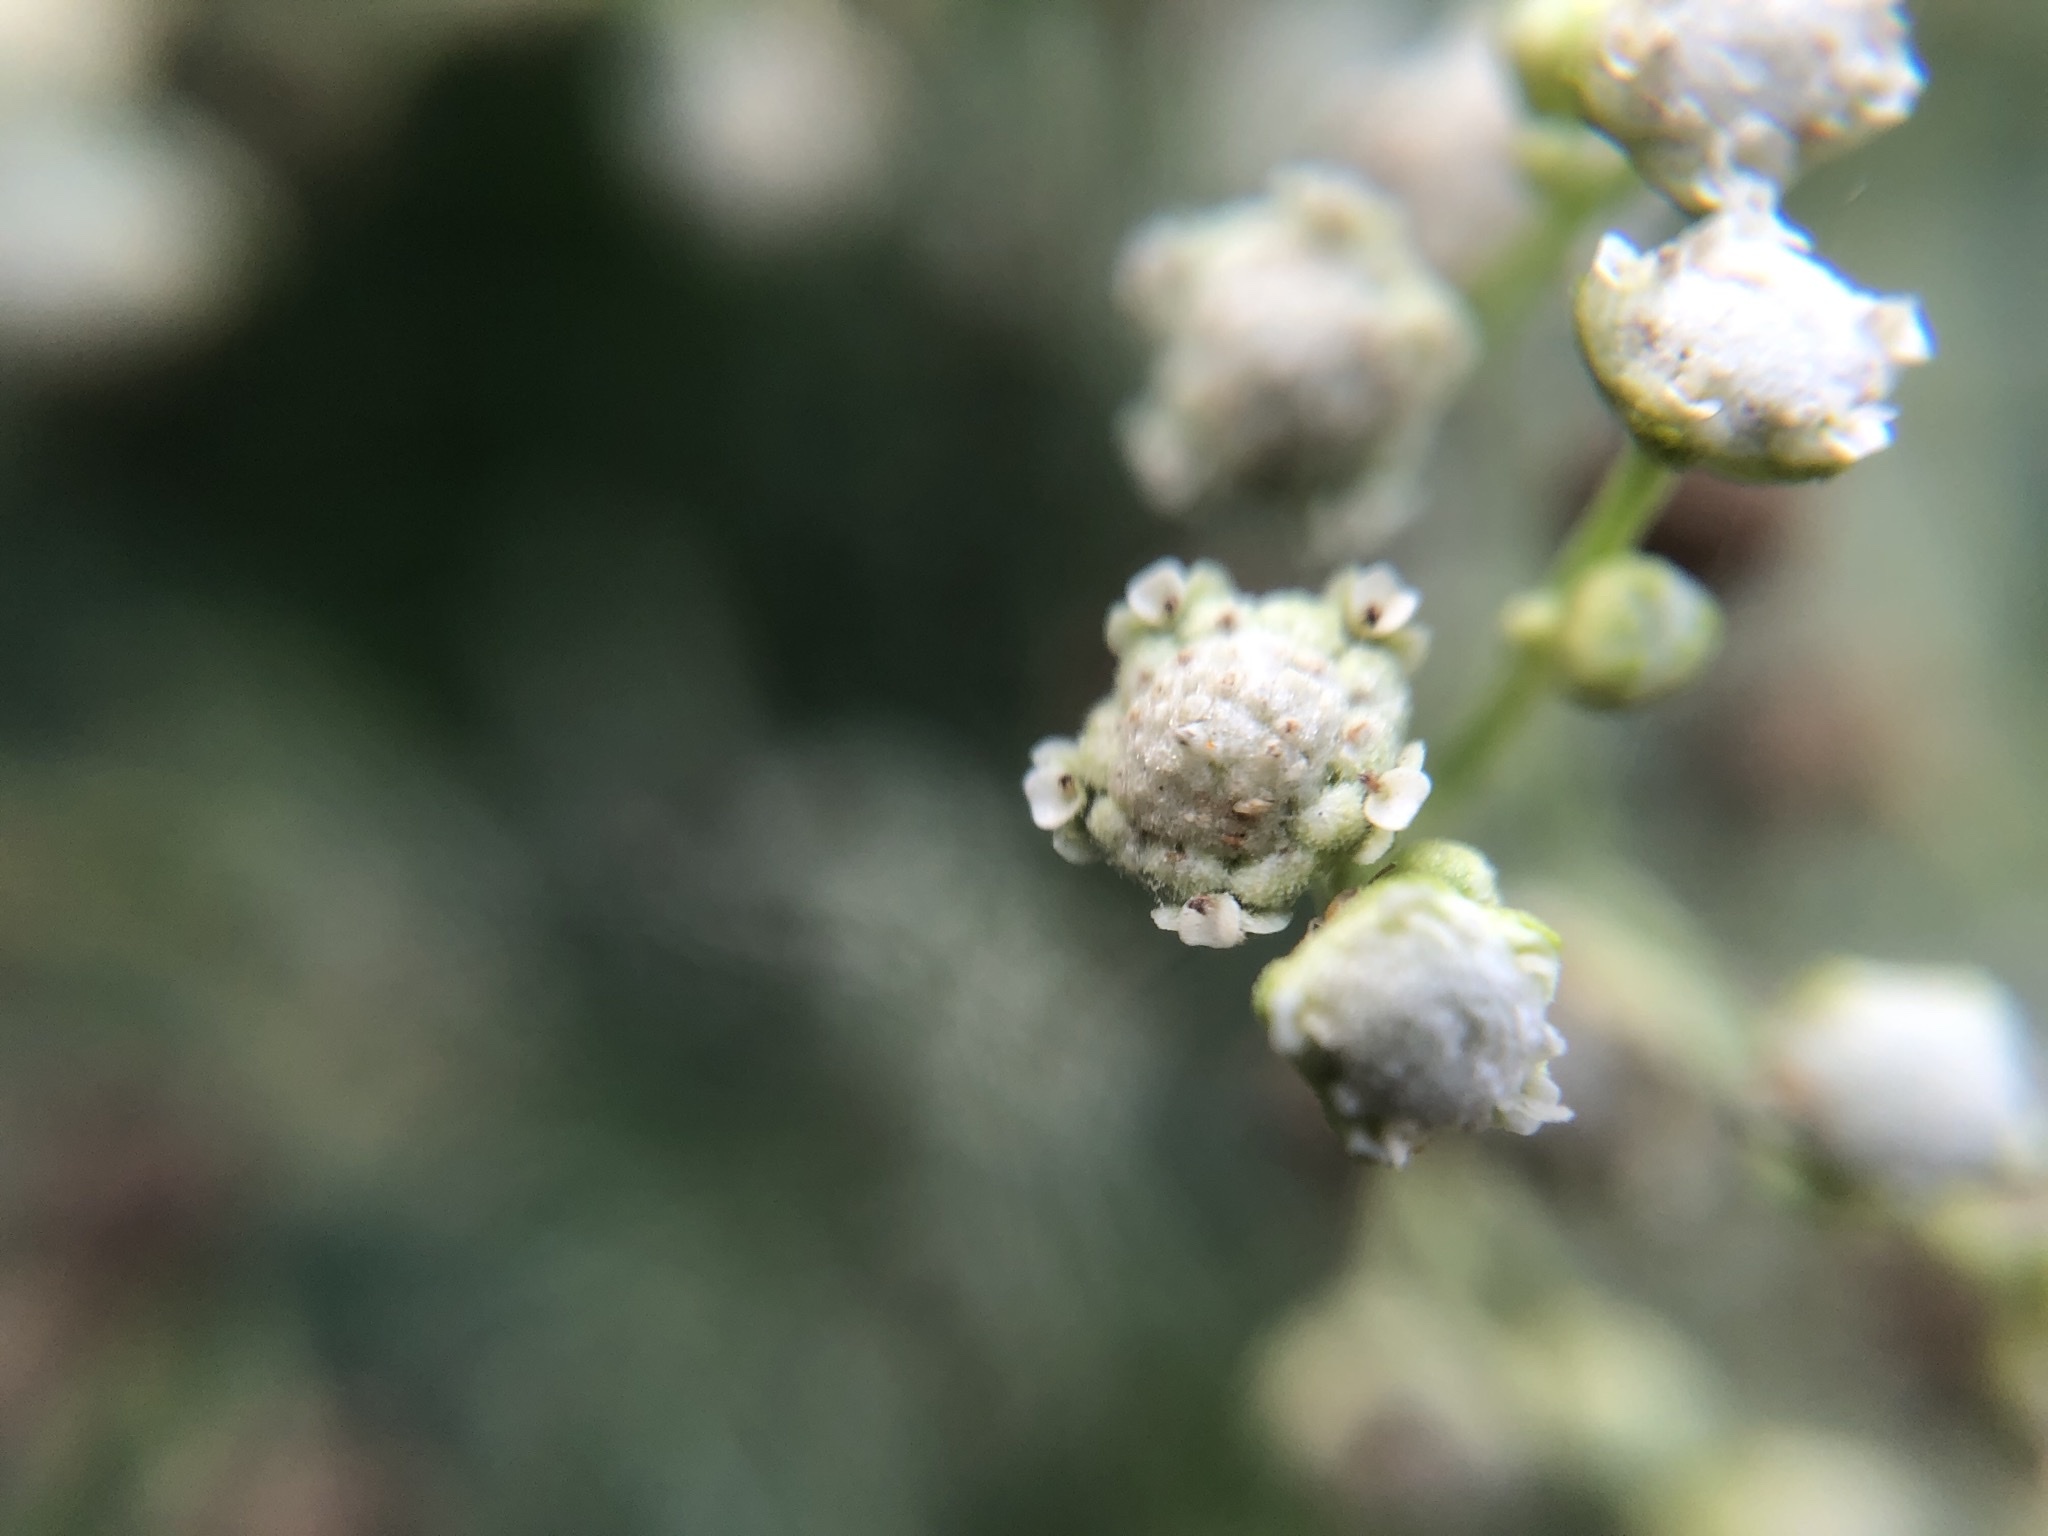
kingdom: Plantae
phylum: Tracheophyta
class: Magnoliopsida
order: Asterales
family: Asteraceae
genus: Parthenium
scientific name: Parthenium hysterophorus
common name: Santa maria feverfew
